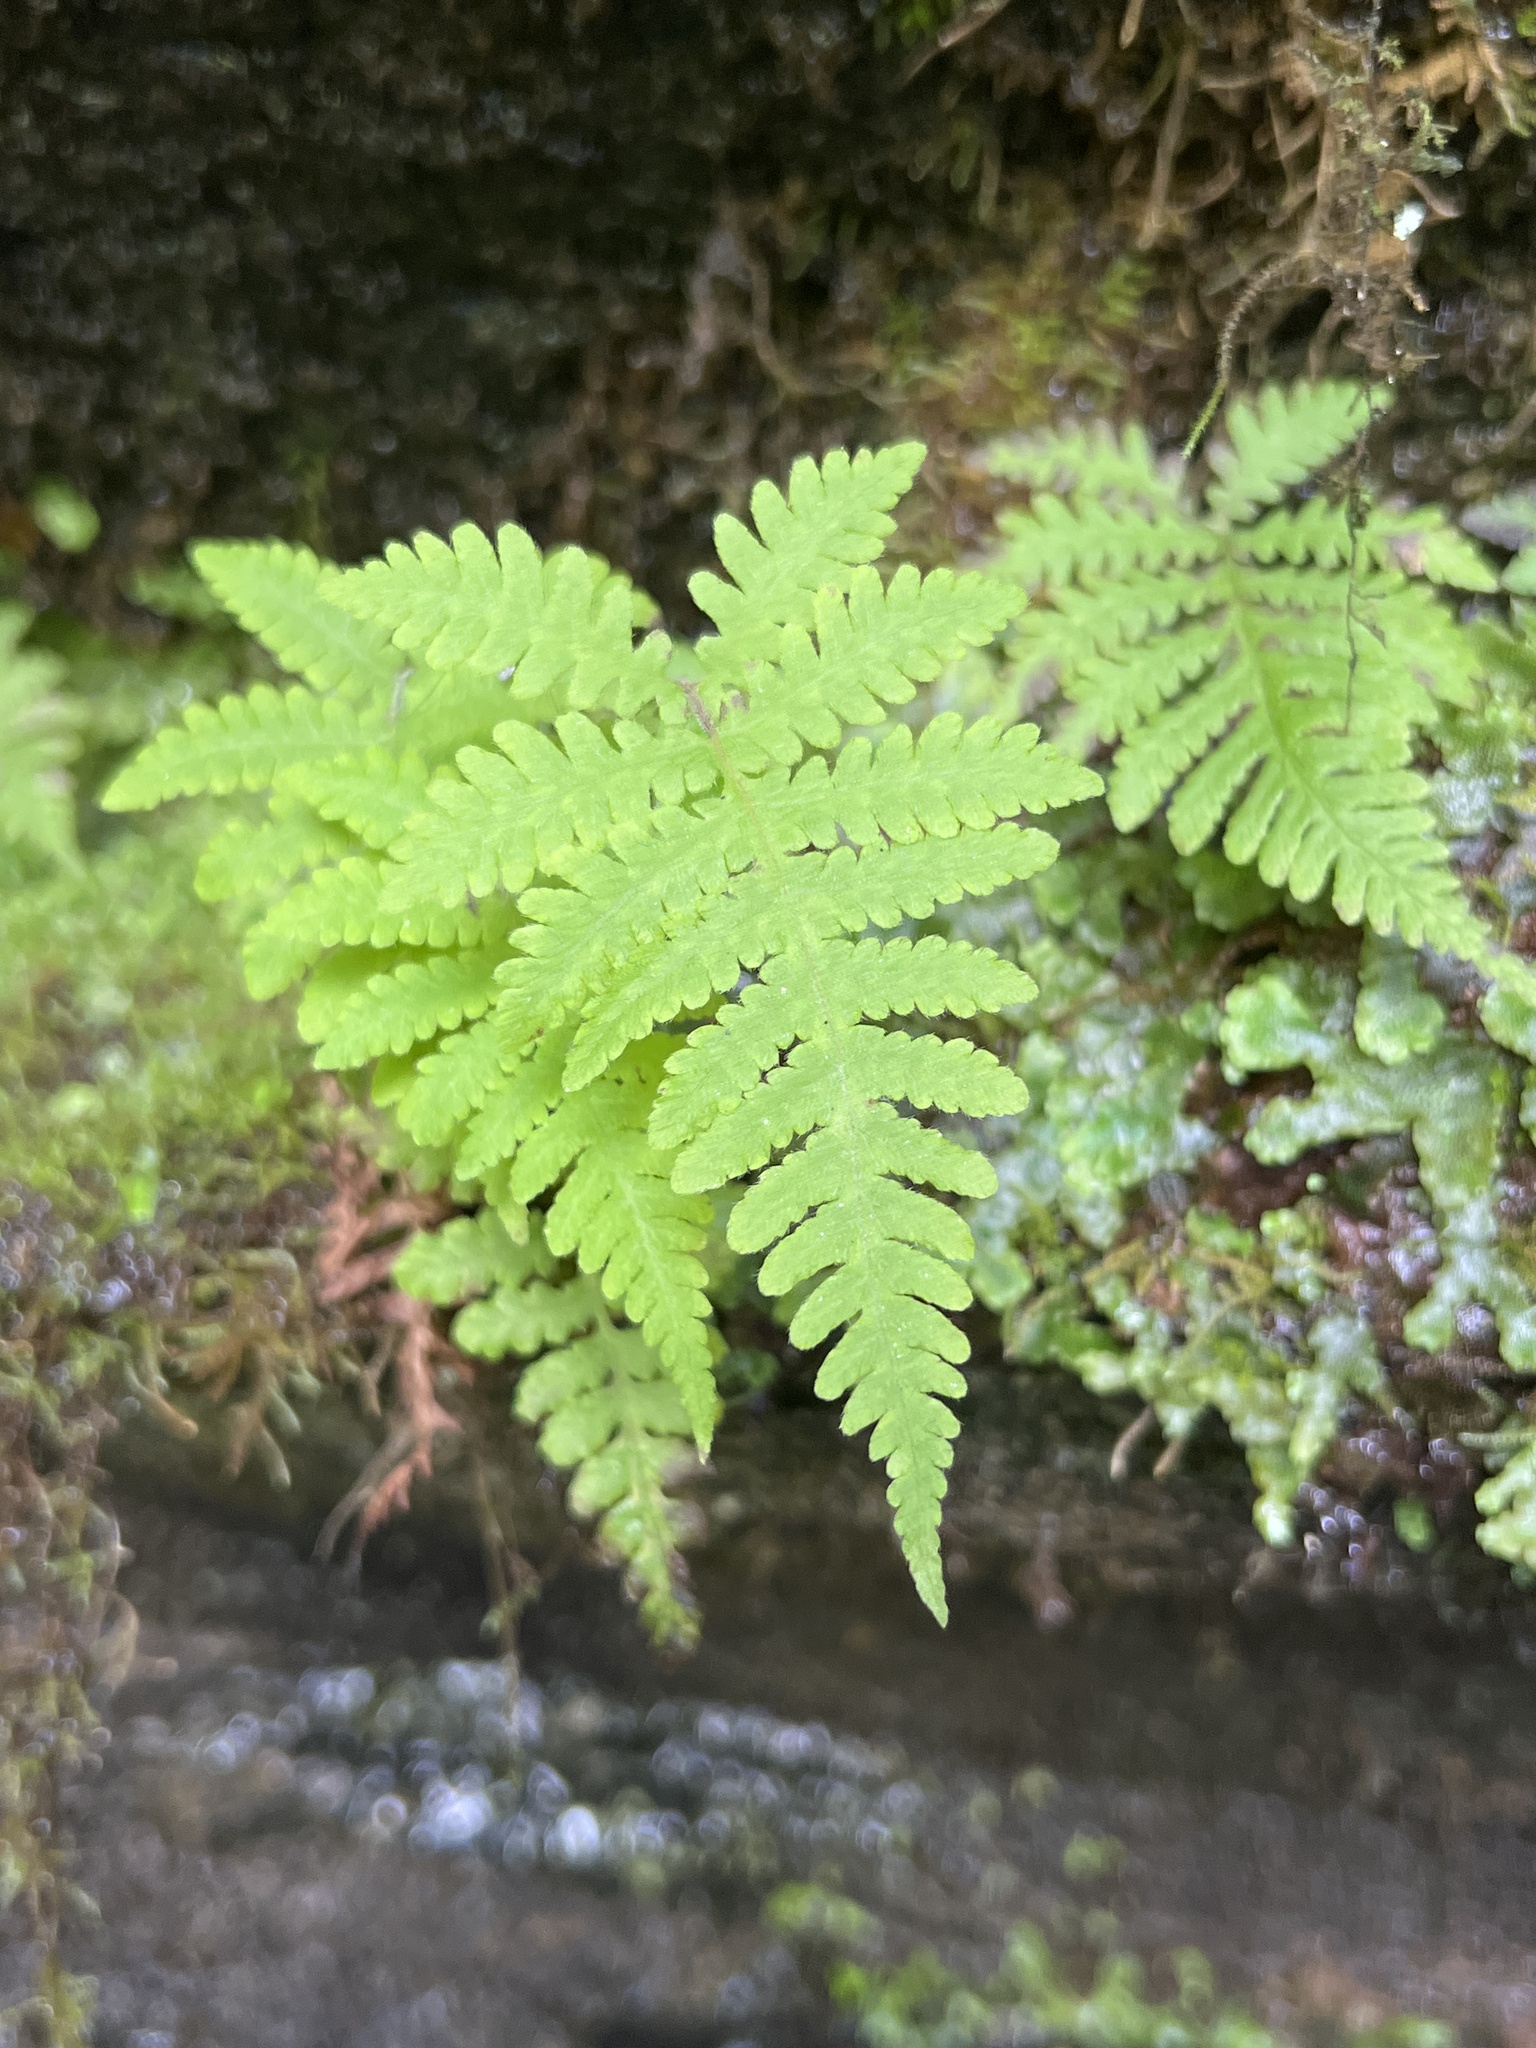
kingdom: Plantae
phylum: Tracheophyta
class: Polypodiopsida
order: Polypodiales
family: Thelypteridaceae
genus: Phegopteris
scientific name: Phegopteris connectilis
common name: Beech fern
